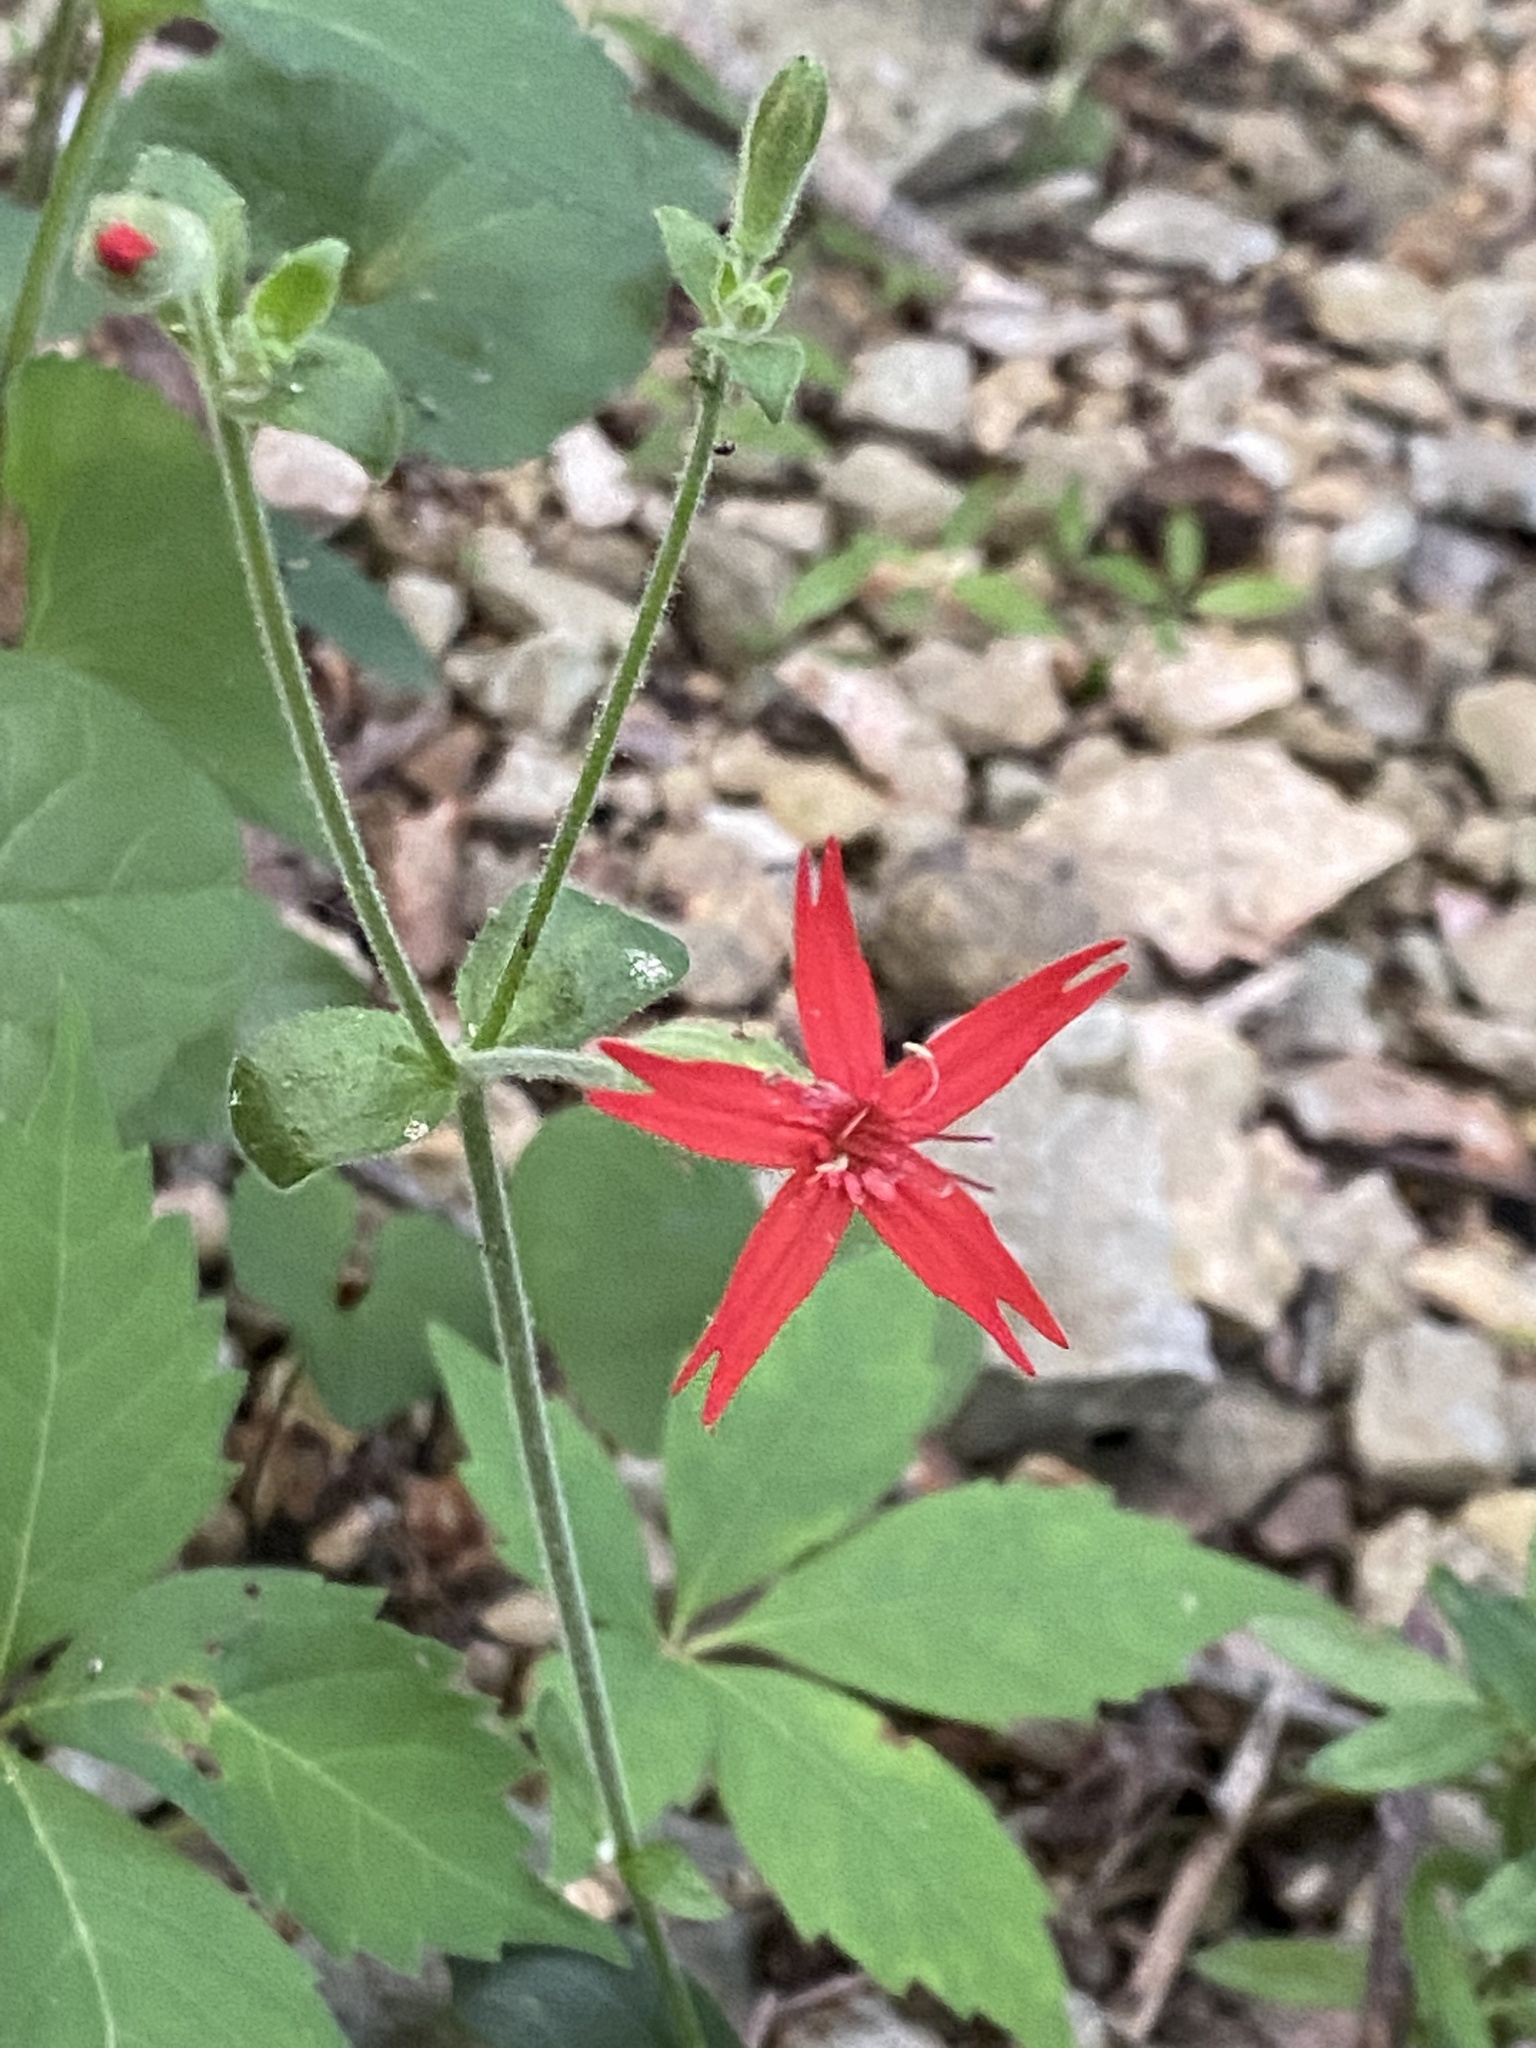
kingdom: Plantae
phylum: Tracheophyta
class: Magnoliopsida
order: Caryophyllales
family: Caryophyllaceae
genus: Silene
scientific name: Silene virginica
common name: Fire-pink
